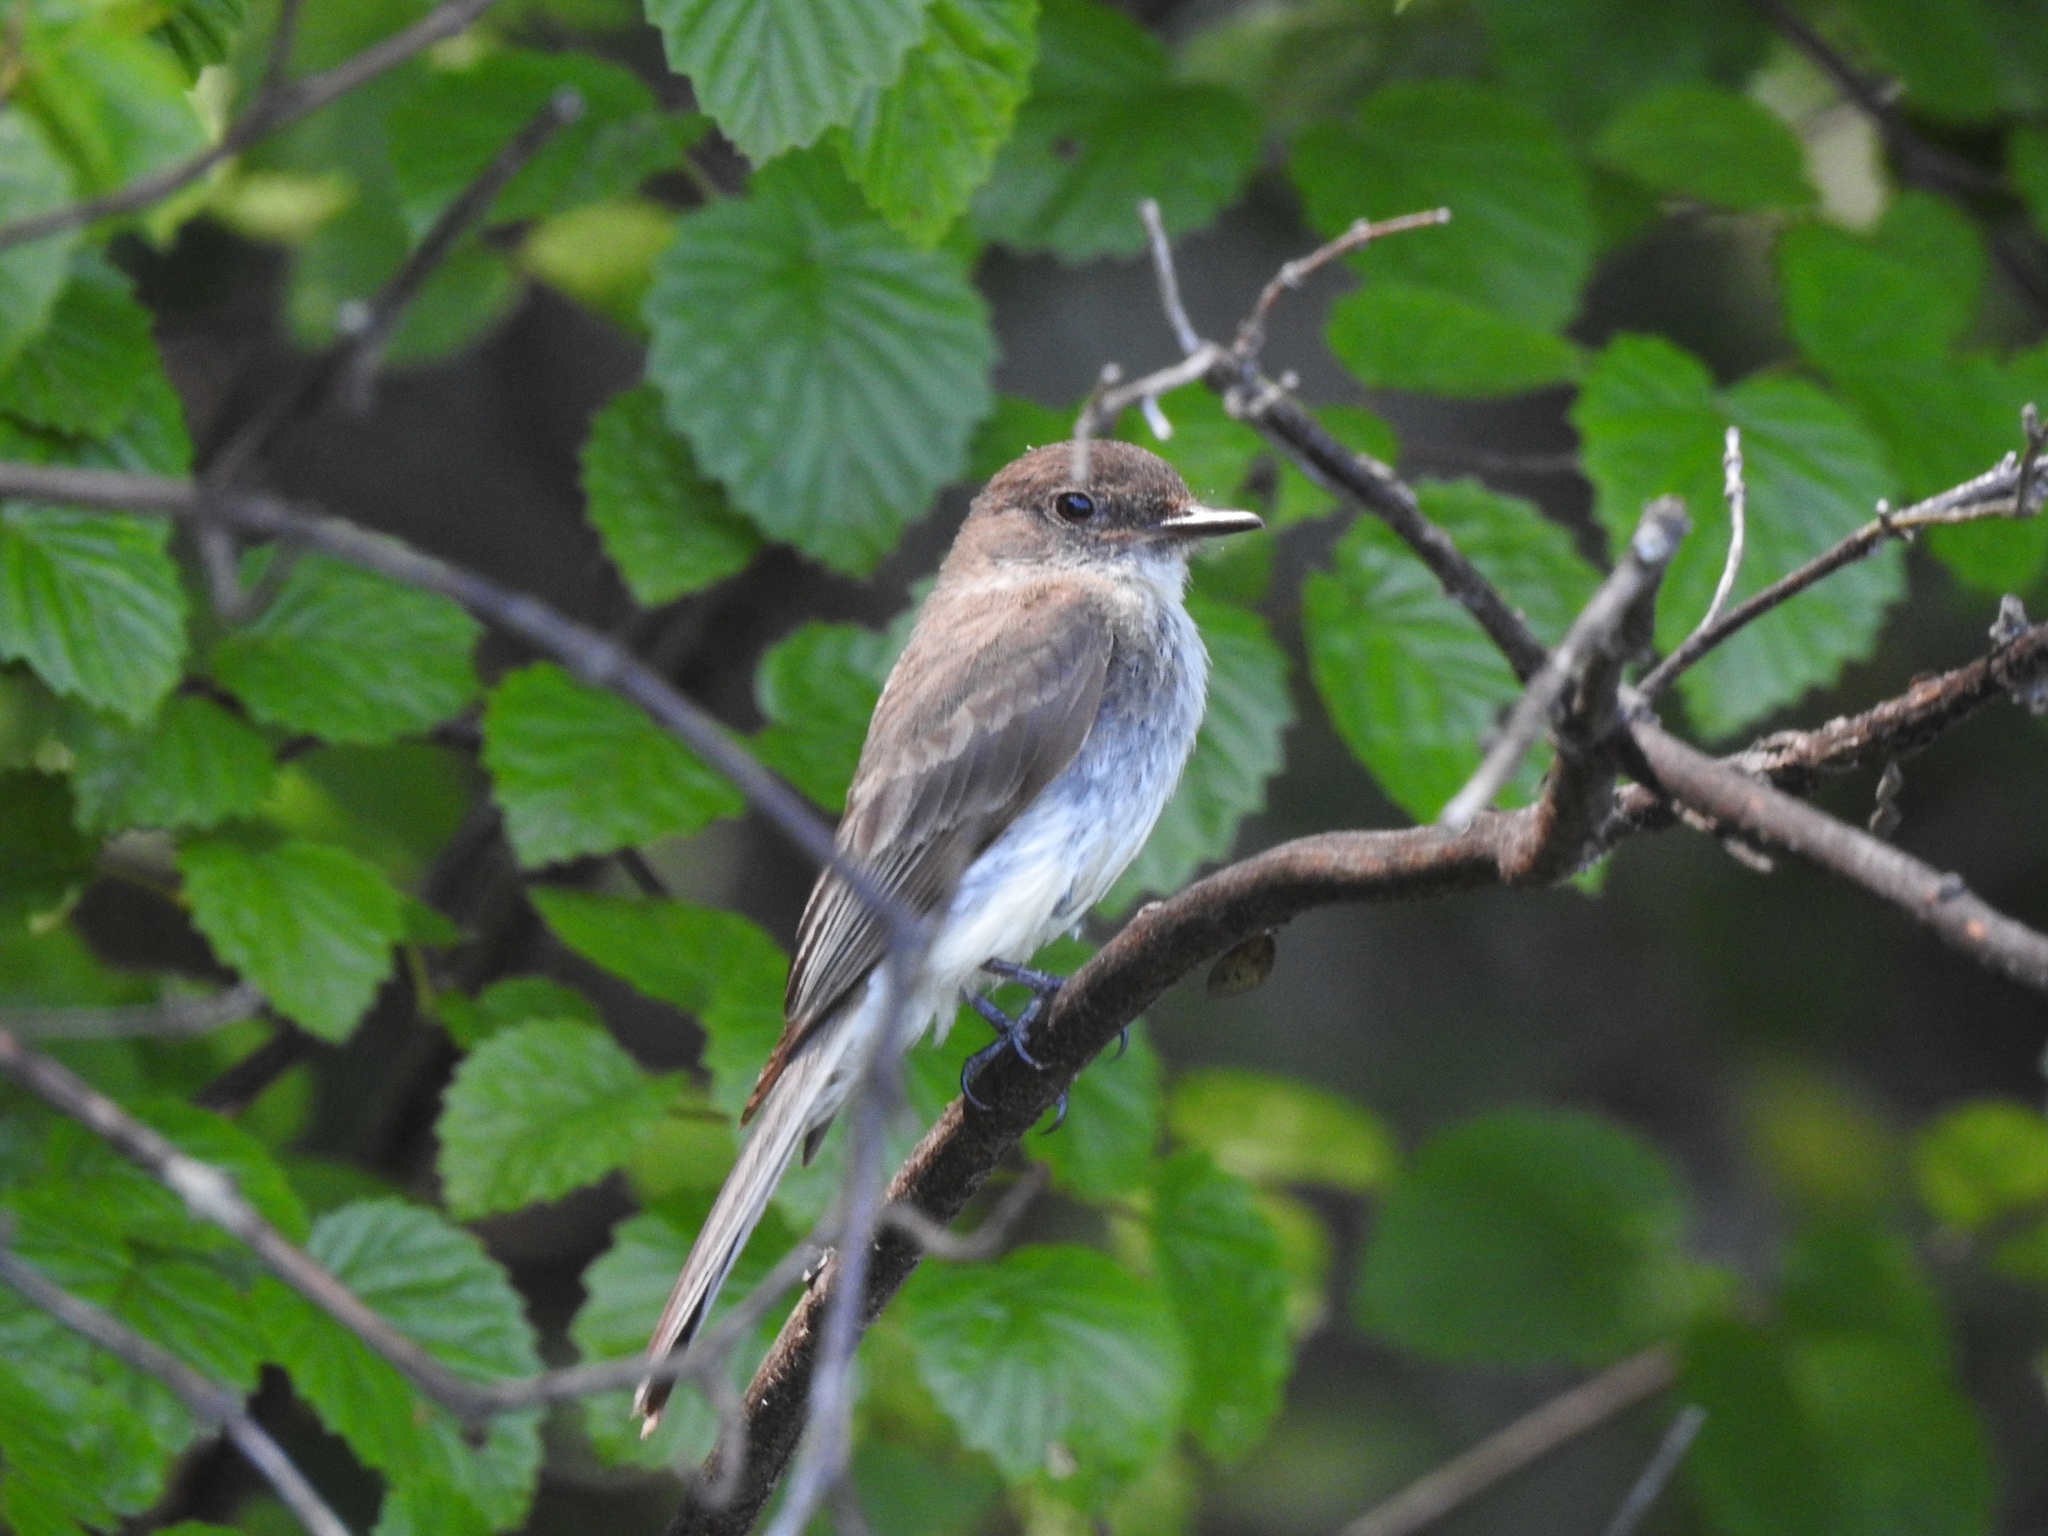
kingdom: Animalia
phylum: Chordata
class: Aves
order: Passeriformes
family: Tyrannidae
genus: Sayornis
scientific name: Sayornis phoebe
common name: Eastern phoebe
